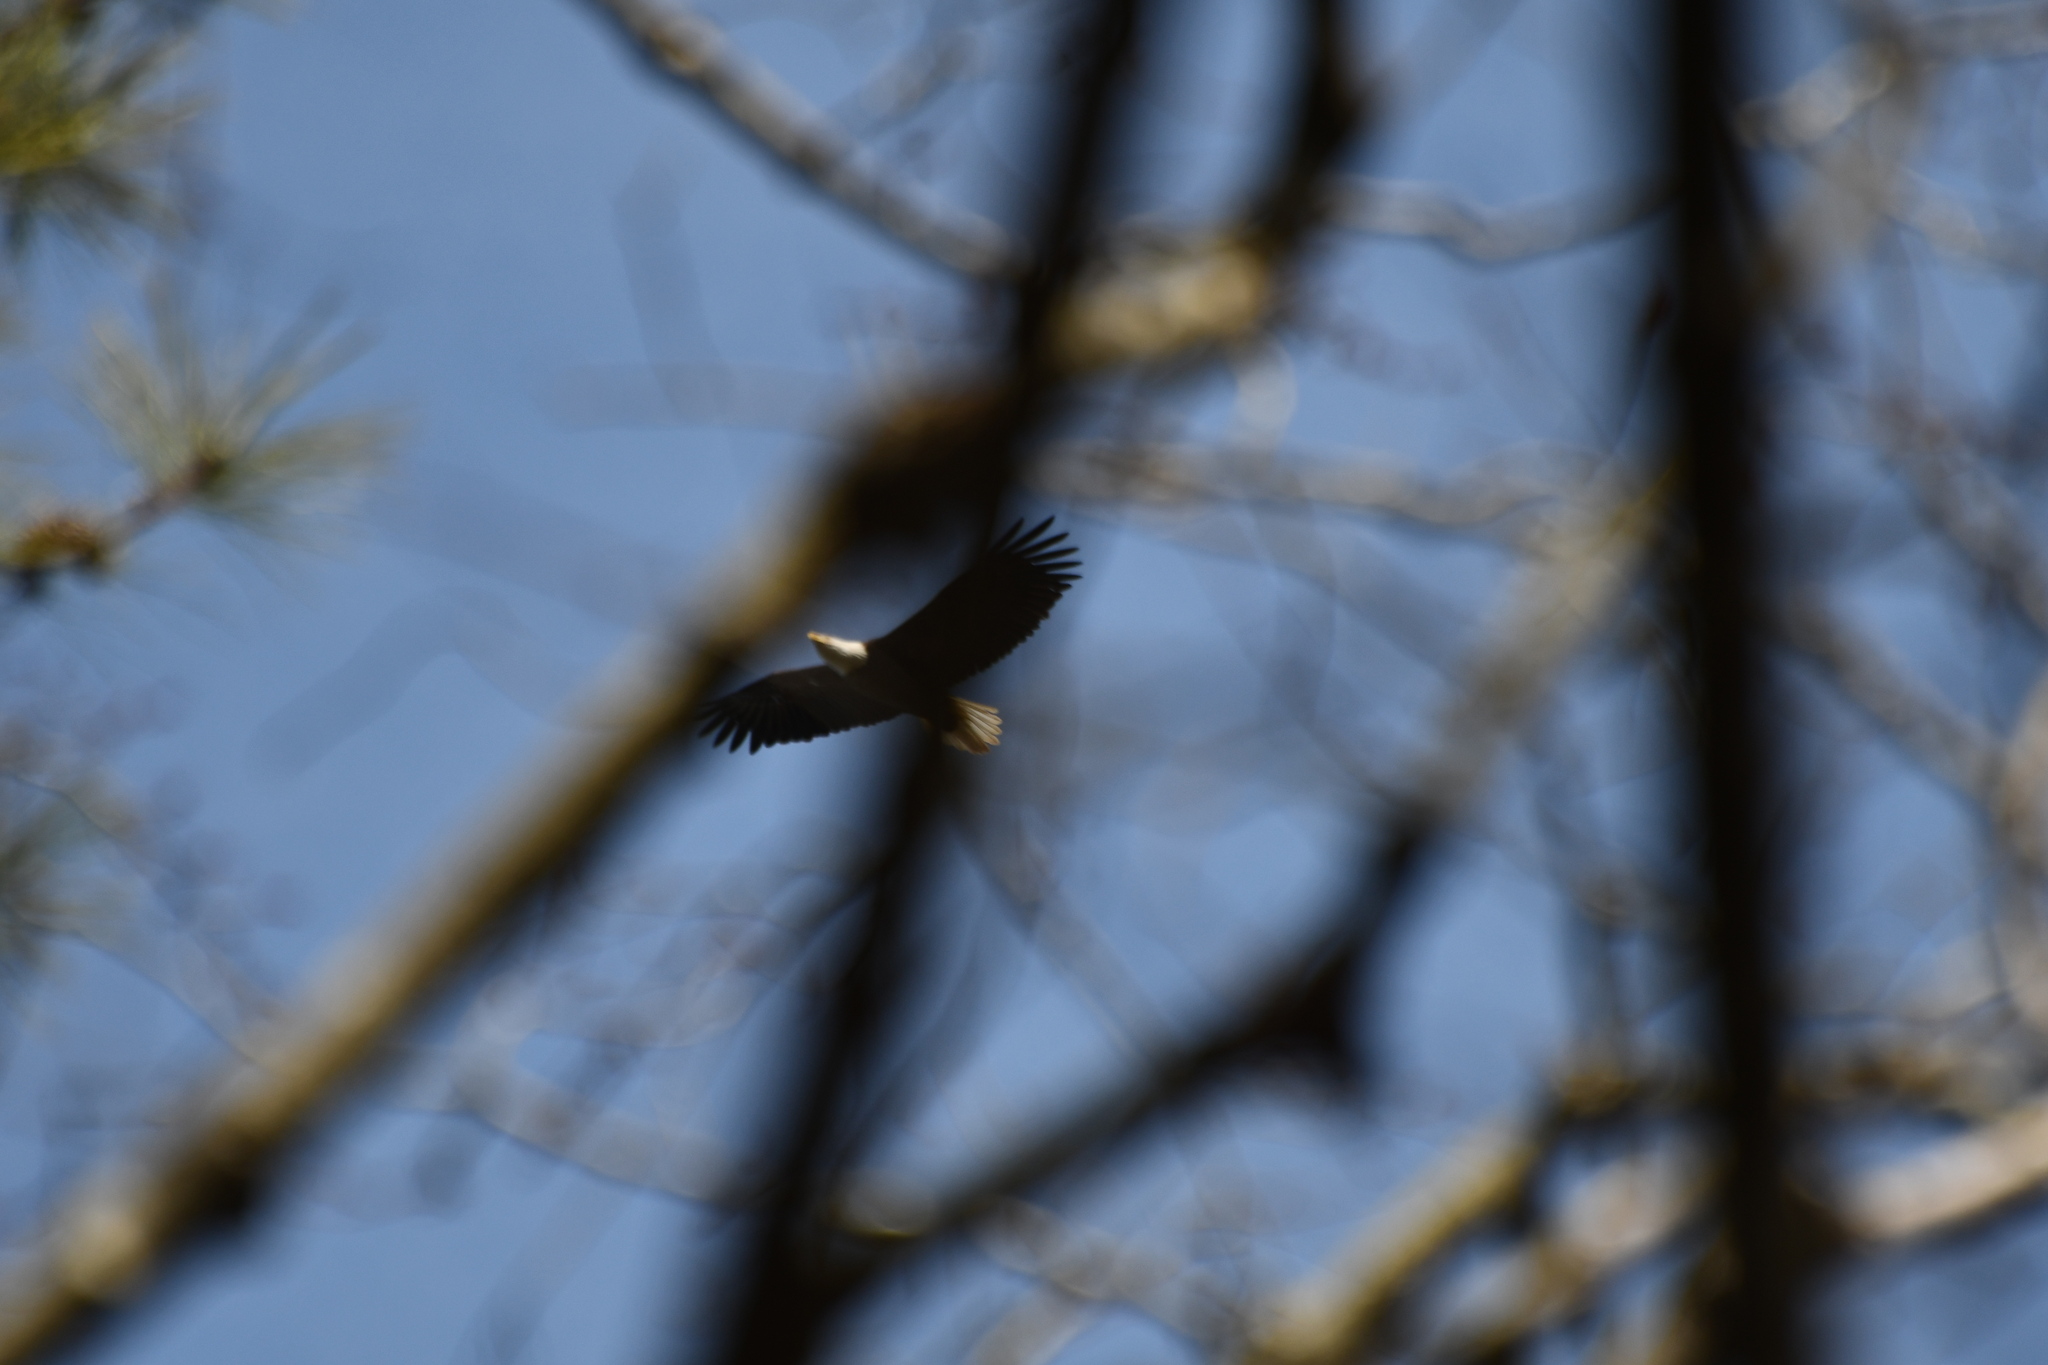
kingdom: Animalia
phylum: Chordata
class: Aves
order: Accipitriformes
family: Accipitridae
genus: Haliaeetus
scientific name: Haliaeetus leucocephalus
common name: Bald eagle
